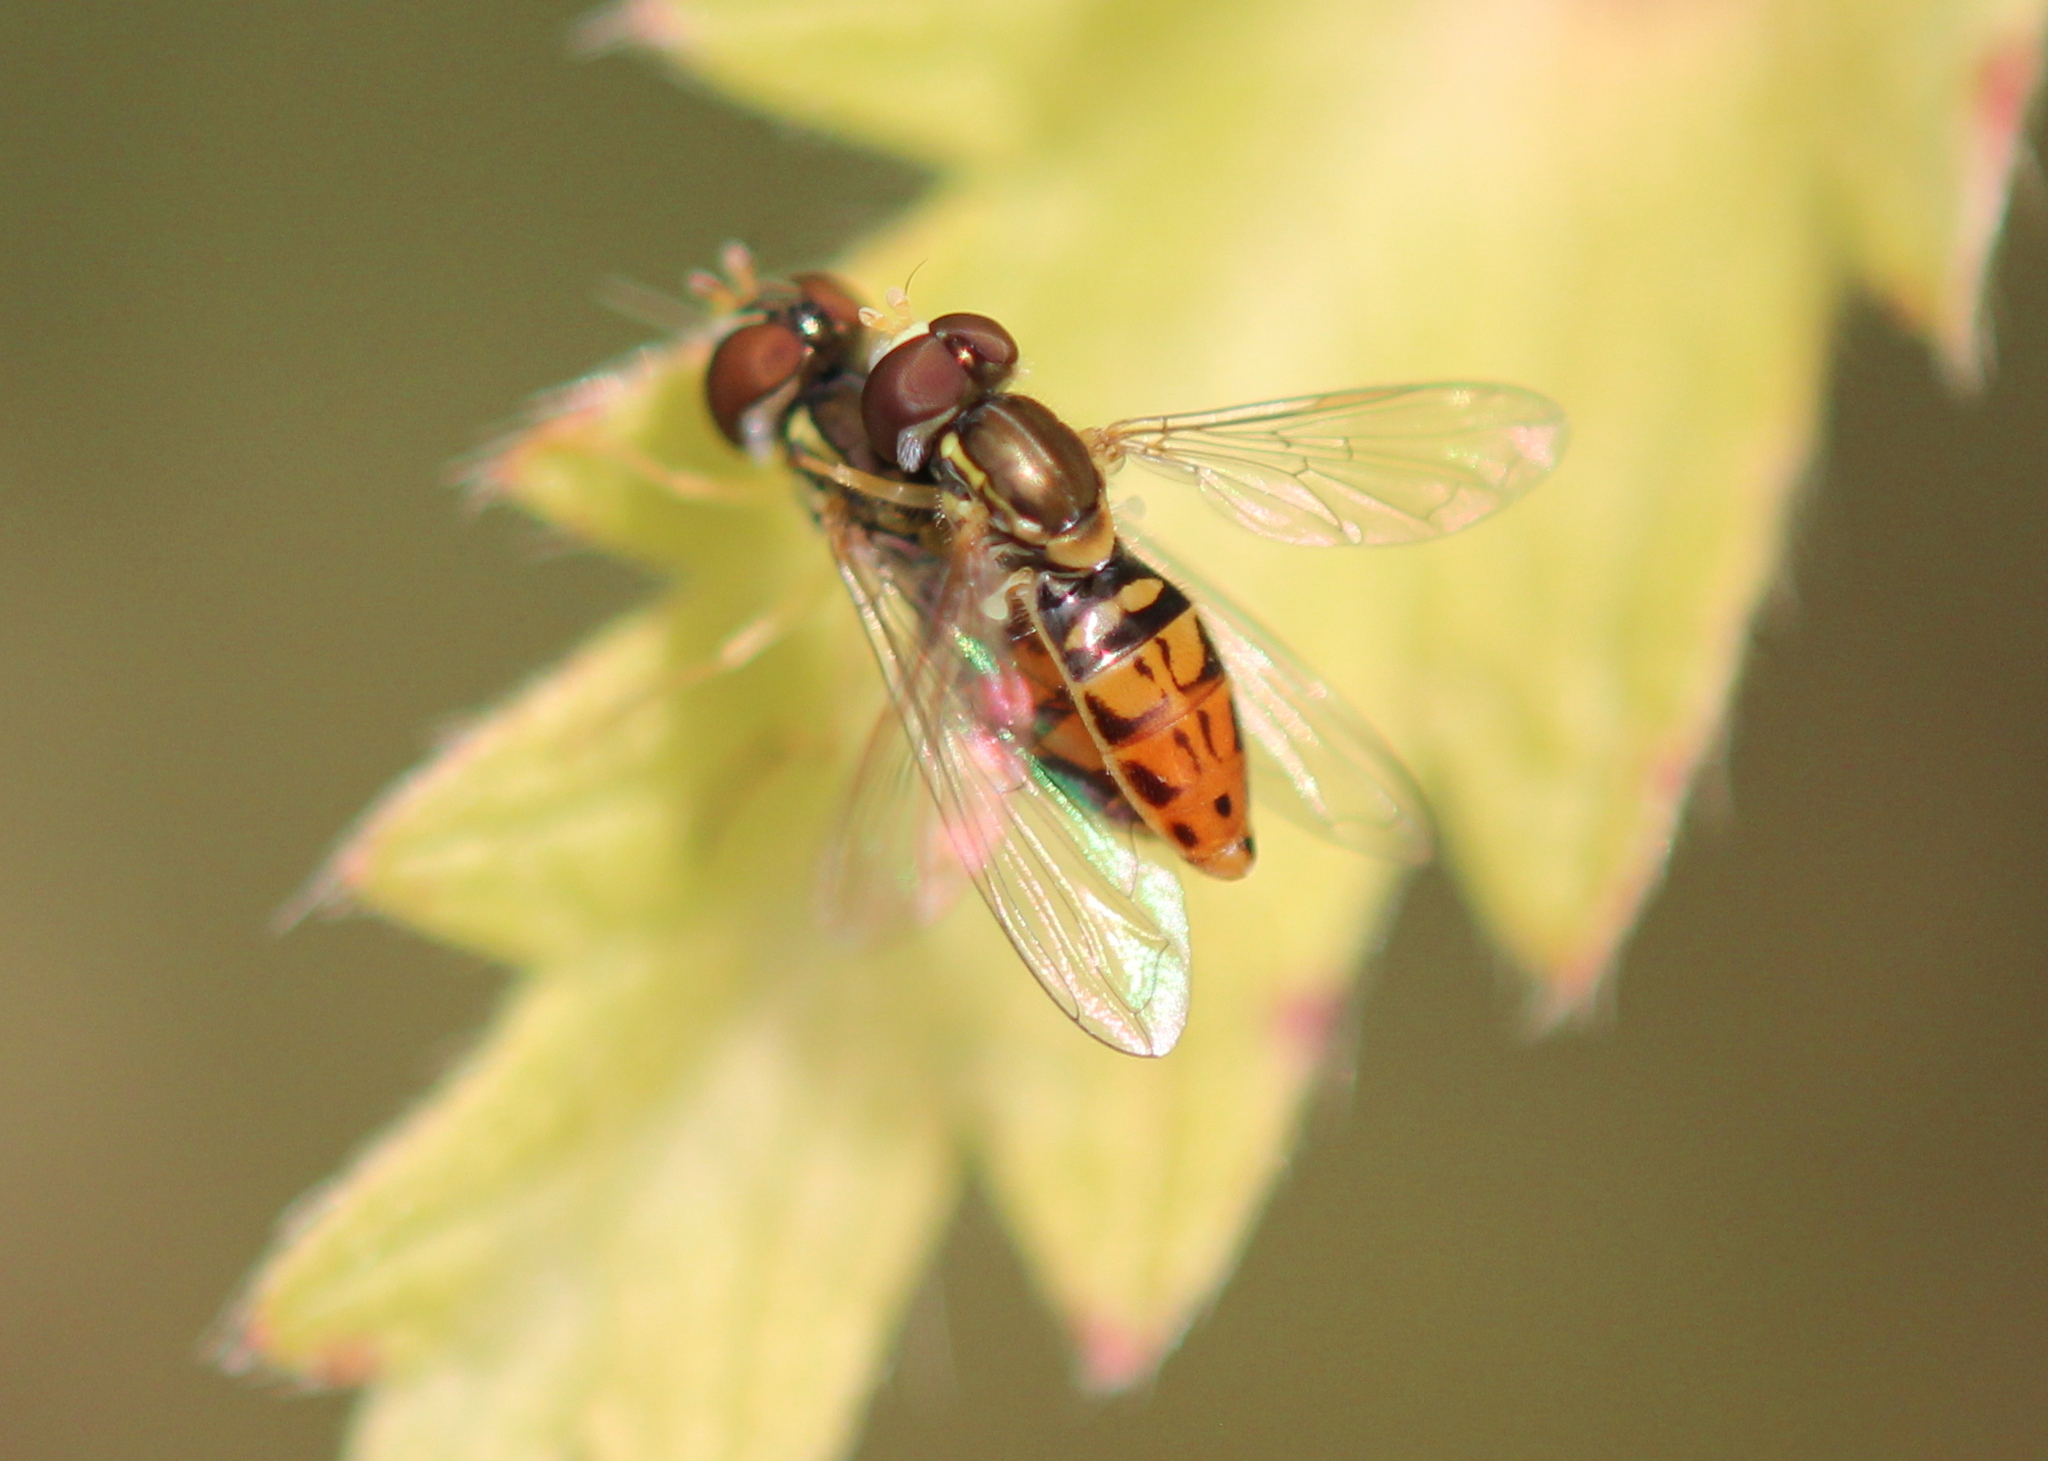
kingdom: Animalia
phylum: Arthropoda
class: Insecta
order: Diptera
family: Syrphidae
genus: Toxomerus
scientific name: Toxomerus marginatus
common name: Syrphid fly
